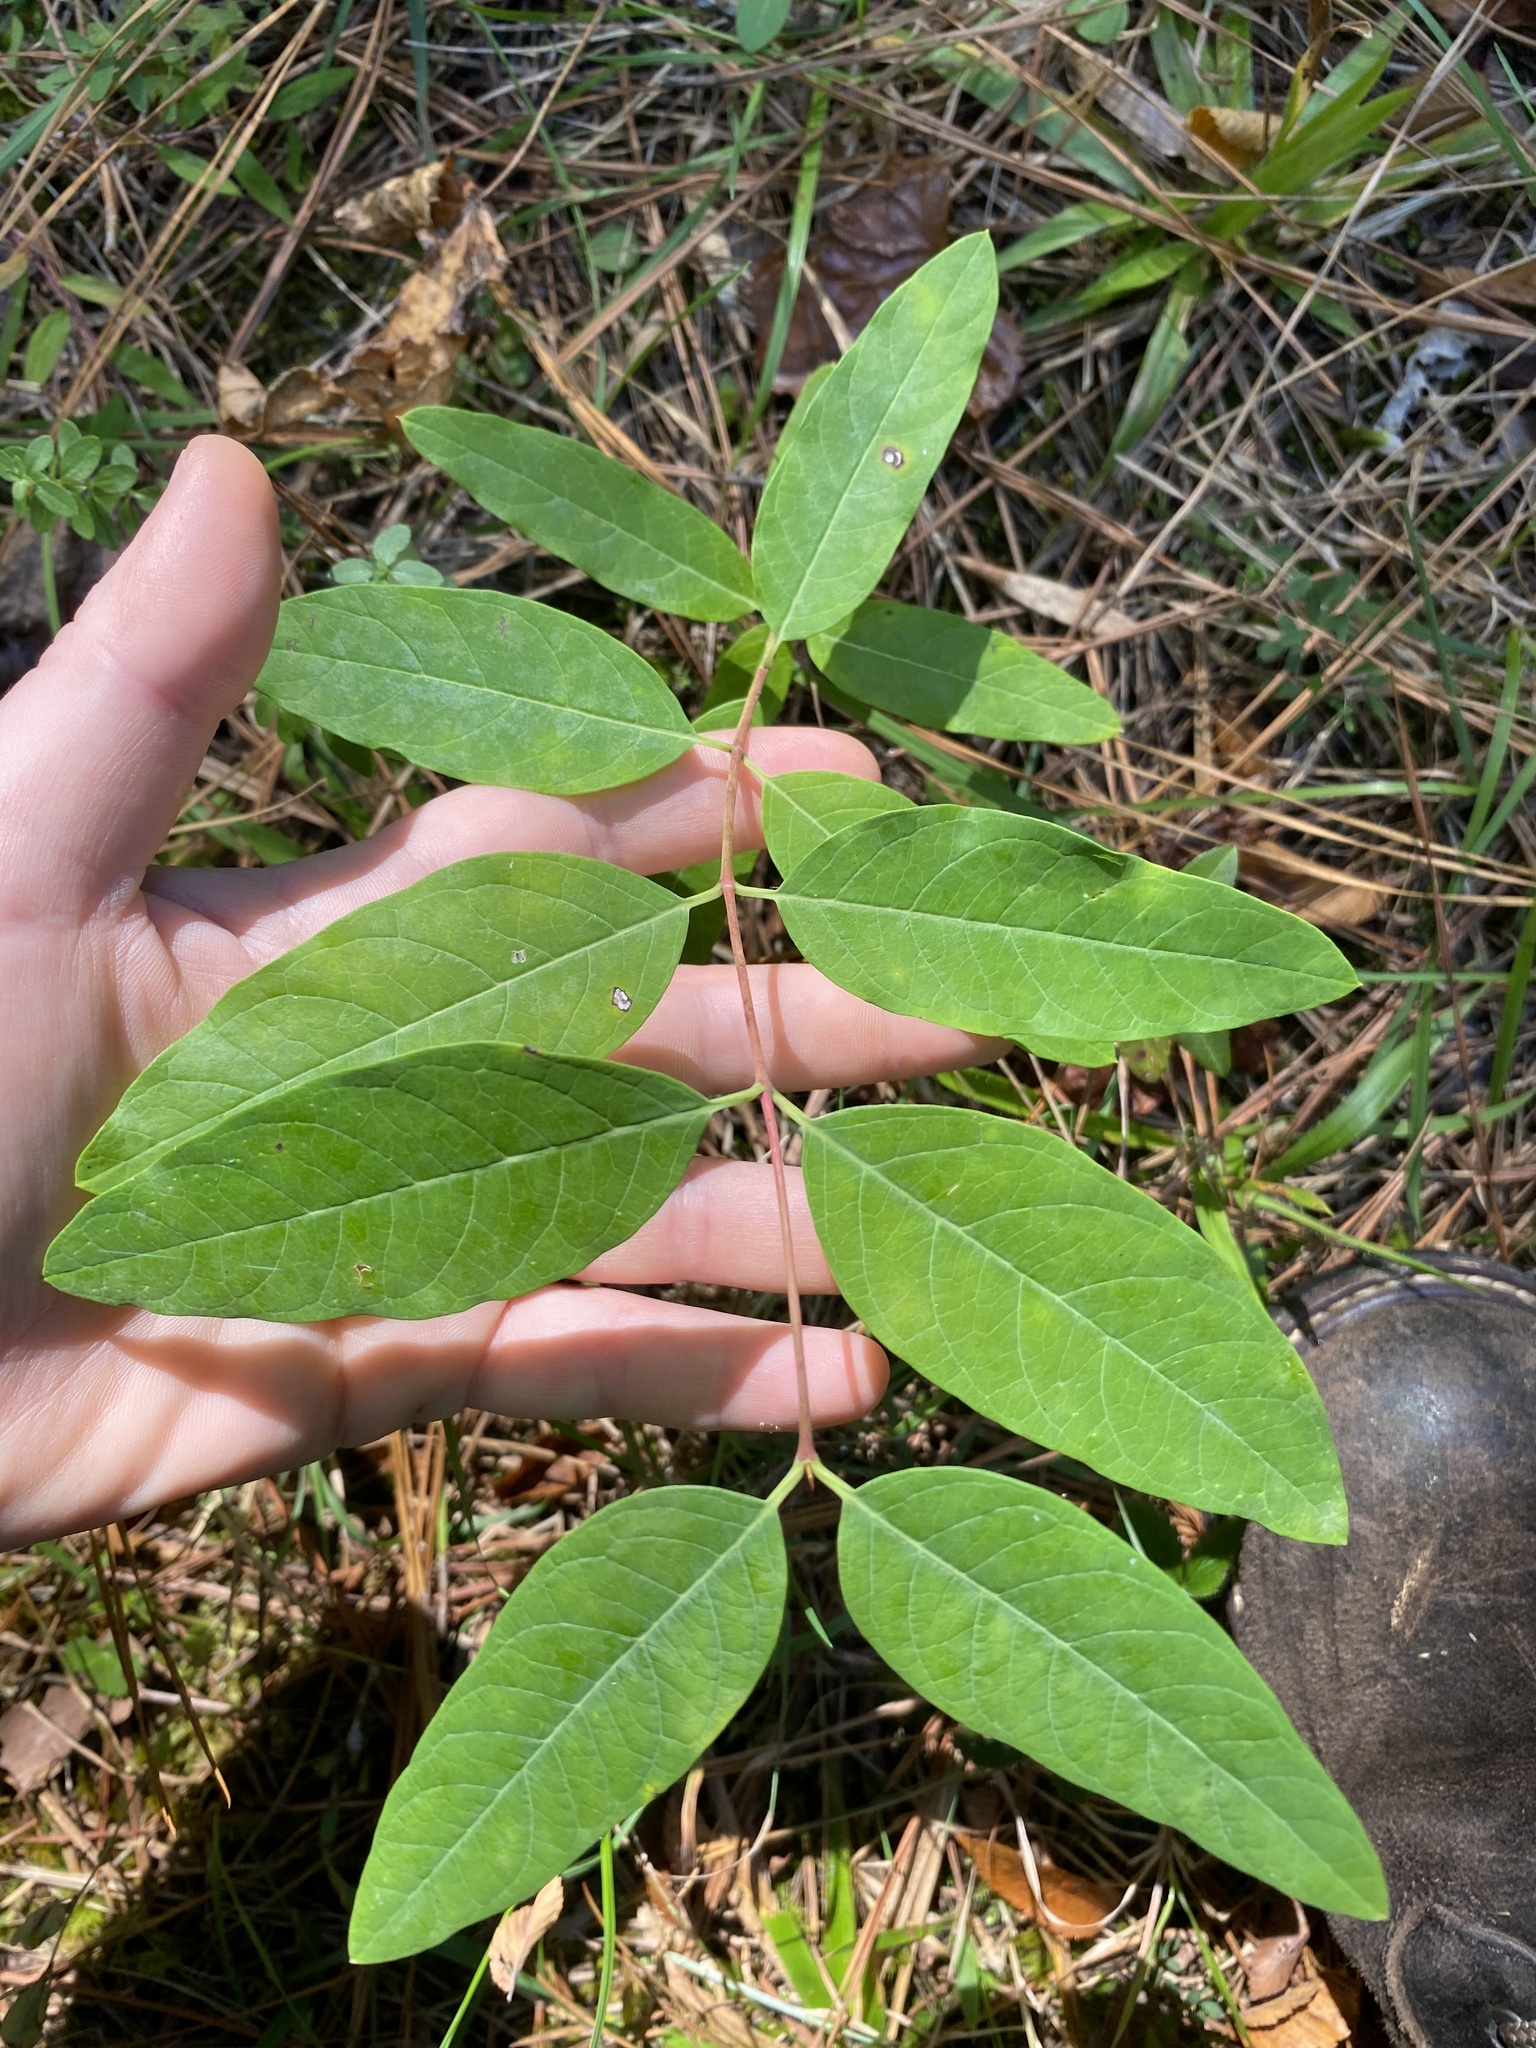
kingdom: Plantae
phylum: Tracheophyta
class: Magnoliopsida
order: Gentianales
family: Apocynaceae
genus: Apocynum
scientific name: Apocynum cannabinum
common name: Hemp dogbane
